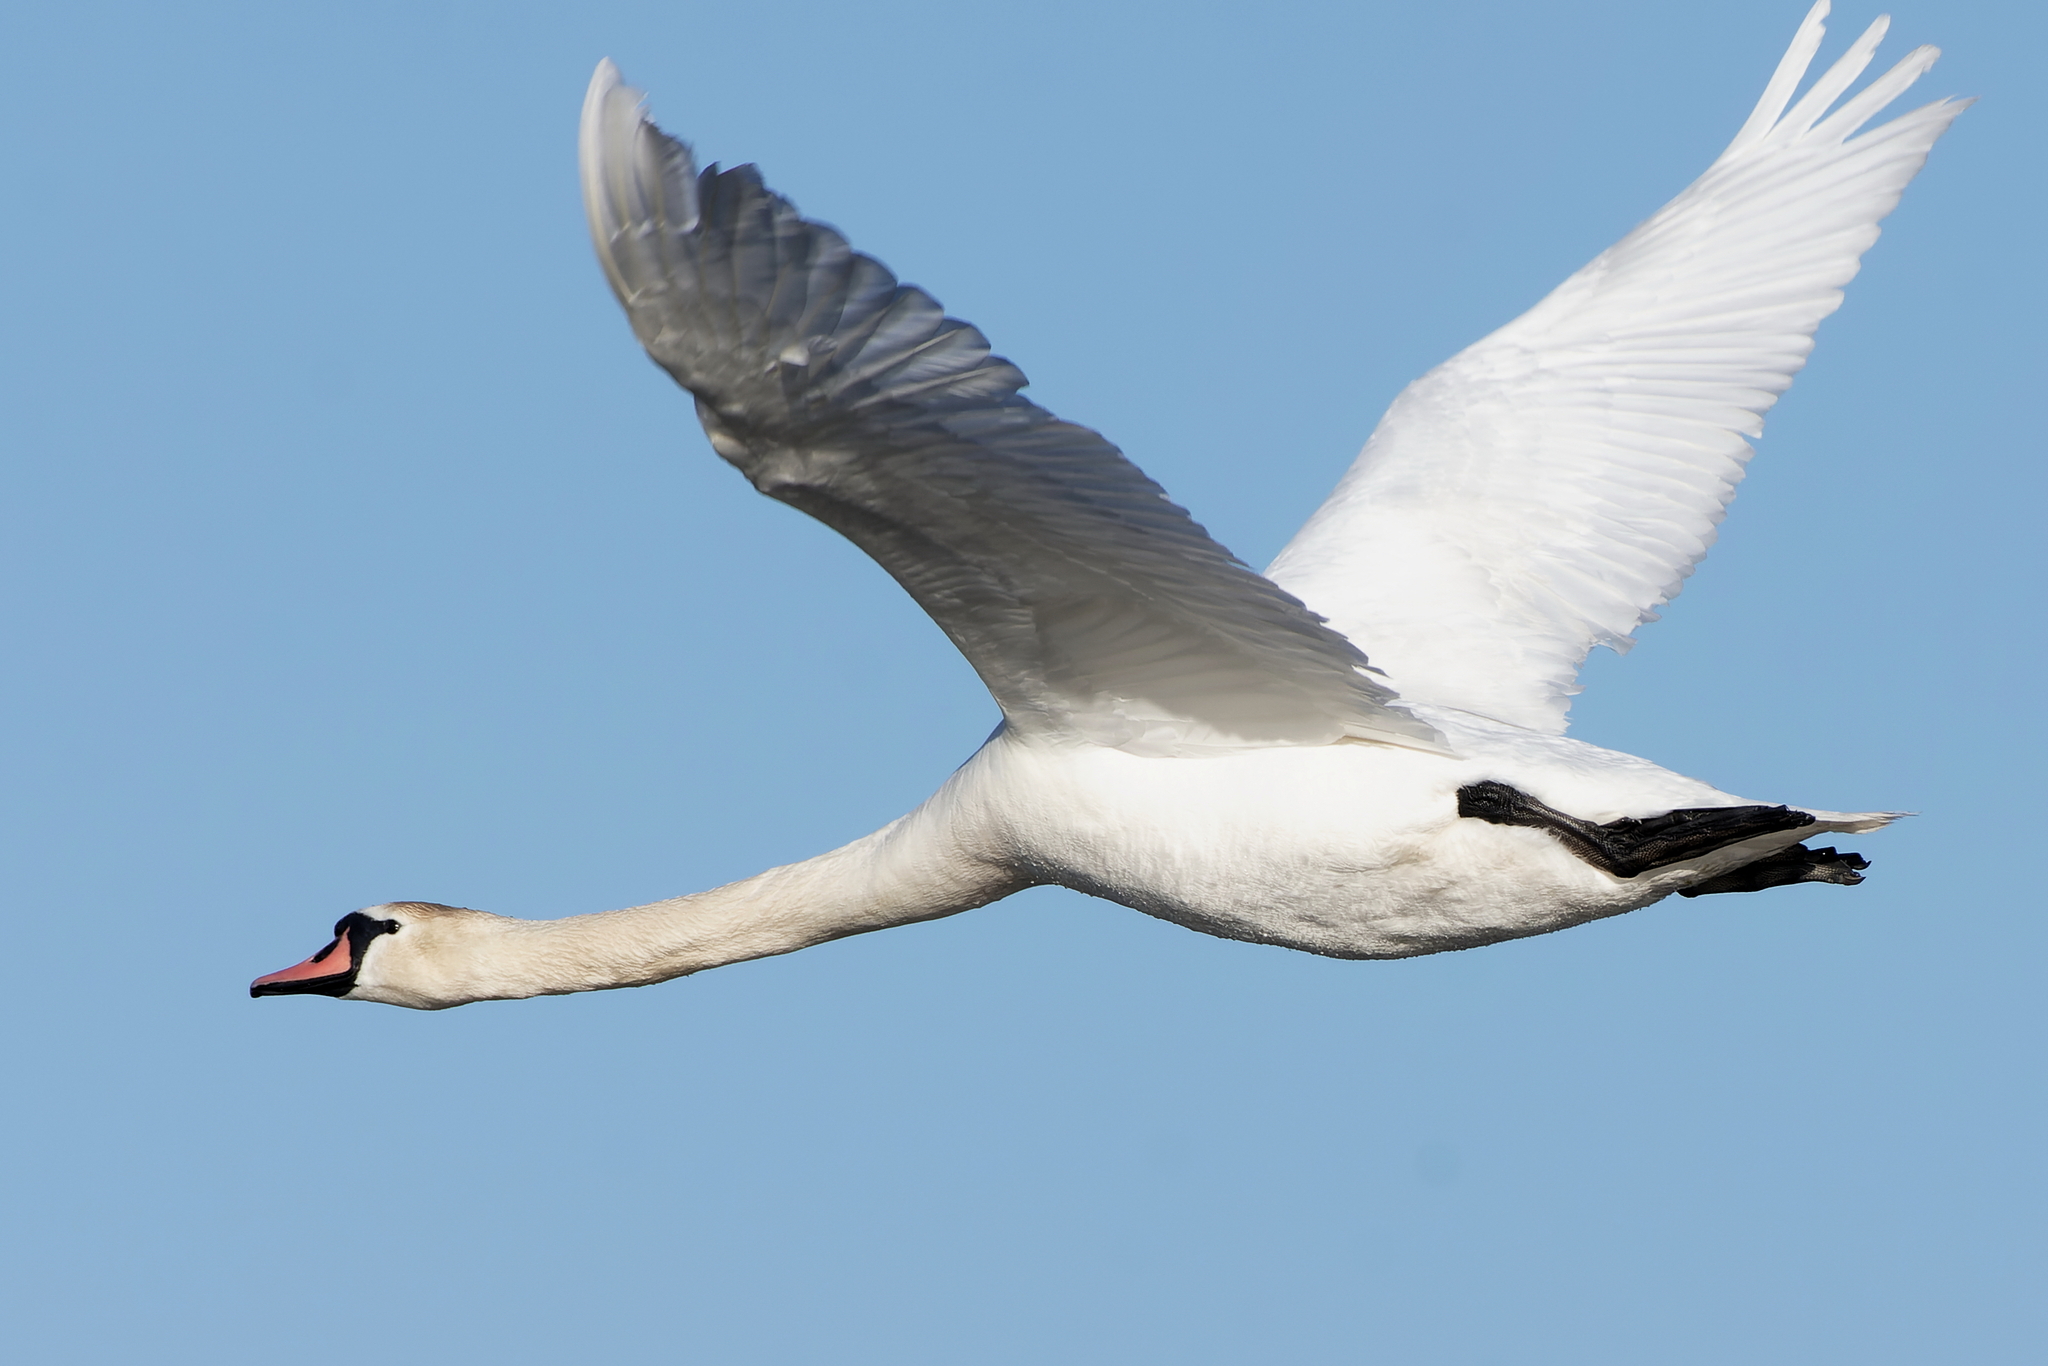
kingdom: Animalia
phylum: Chordata
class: Aves
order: Anseriformes
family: Anatidae
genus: Cygnus
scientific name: Cygnus olor
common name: Mute swan
